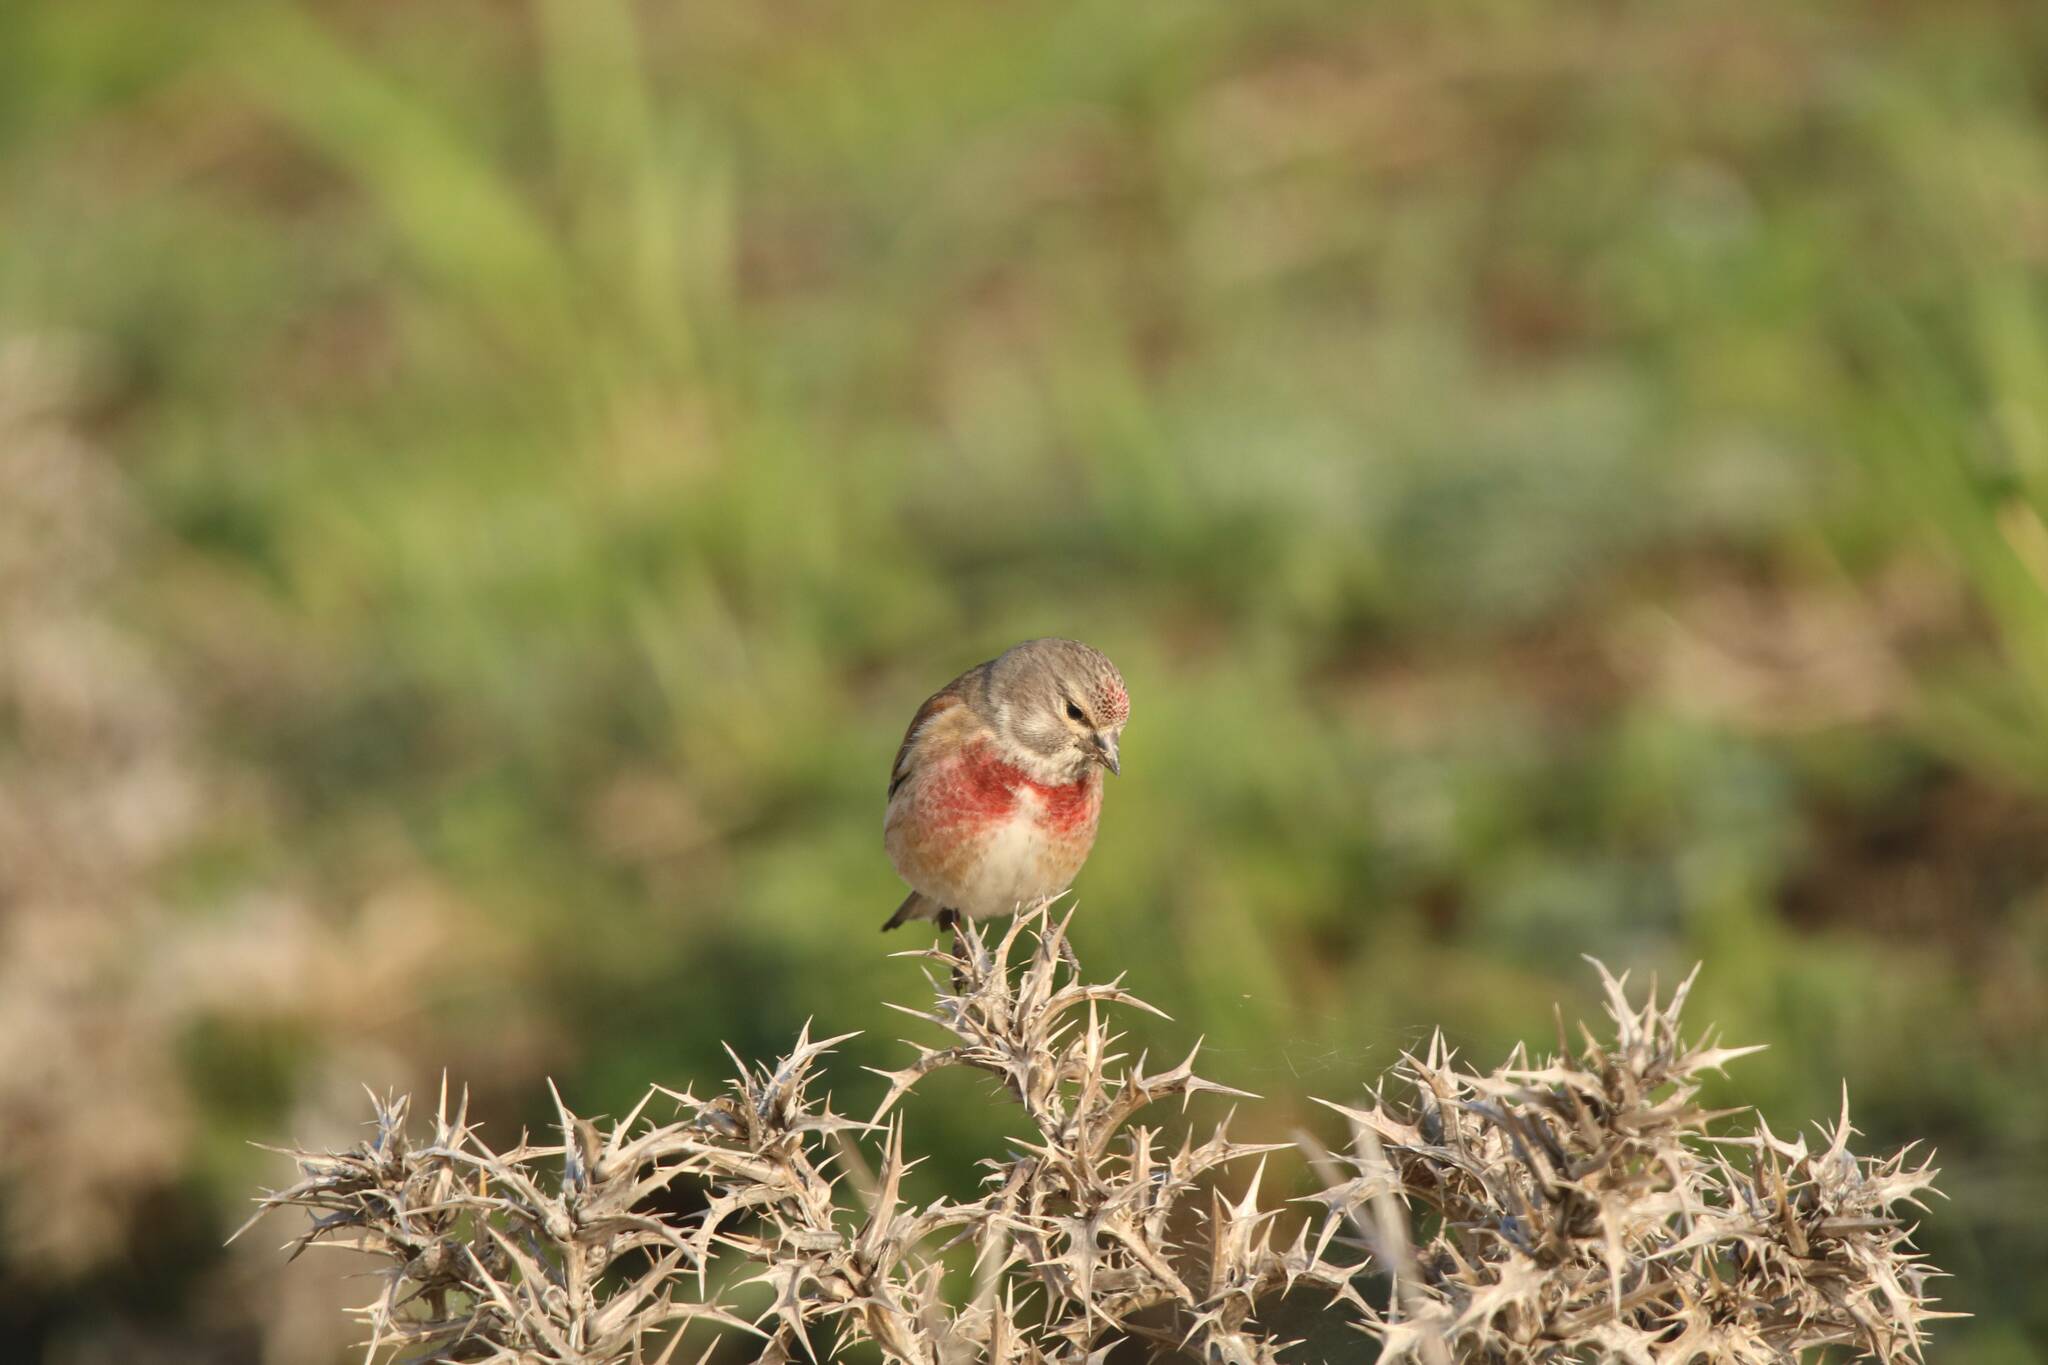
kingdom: Animalia
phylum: Chordata
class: Aves
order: Passeriformes
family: Fringillidae
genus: Linaria
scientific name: Linaria cannabina
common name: Common linnet
